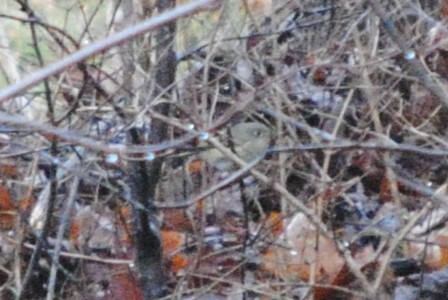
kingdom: Animalia
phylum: Chordata
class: Aves
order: Passeriformes
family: Regulidae
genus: Regulus
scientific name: Regulus calendula
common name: Ruby-crowned kinglet
